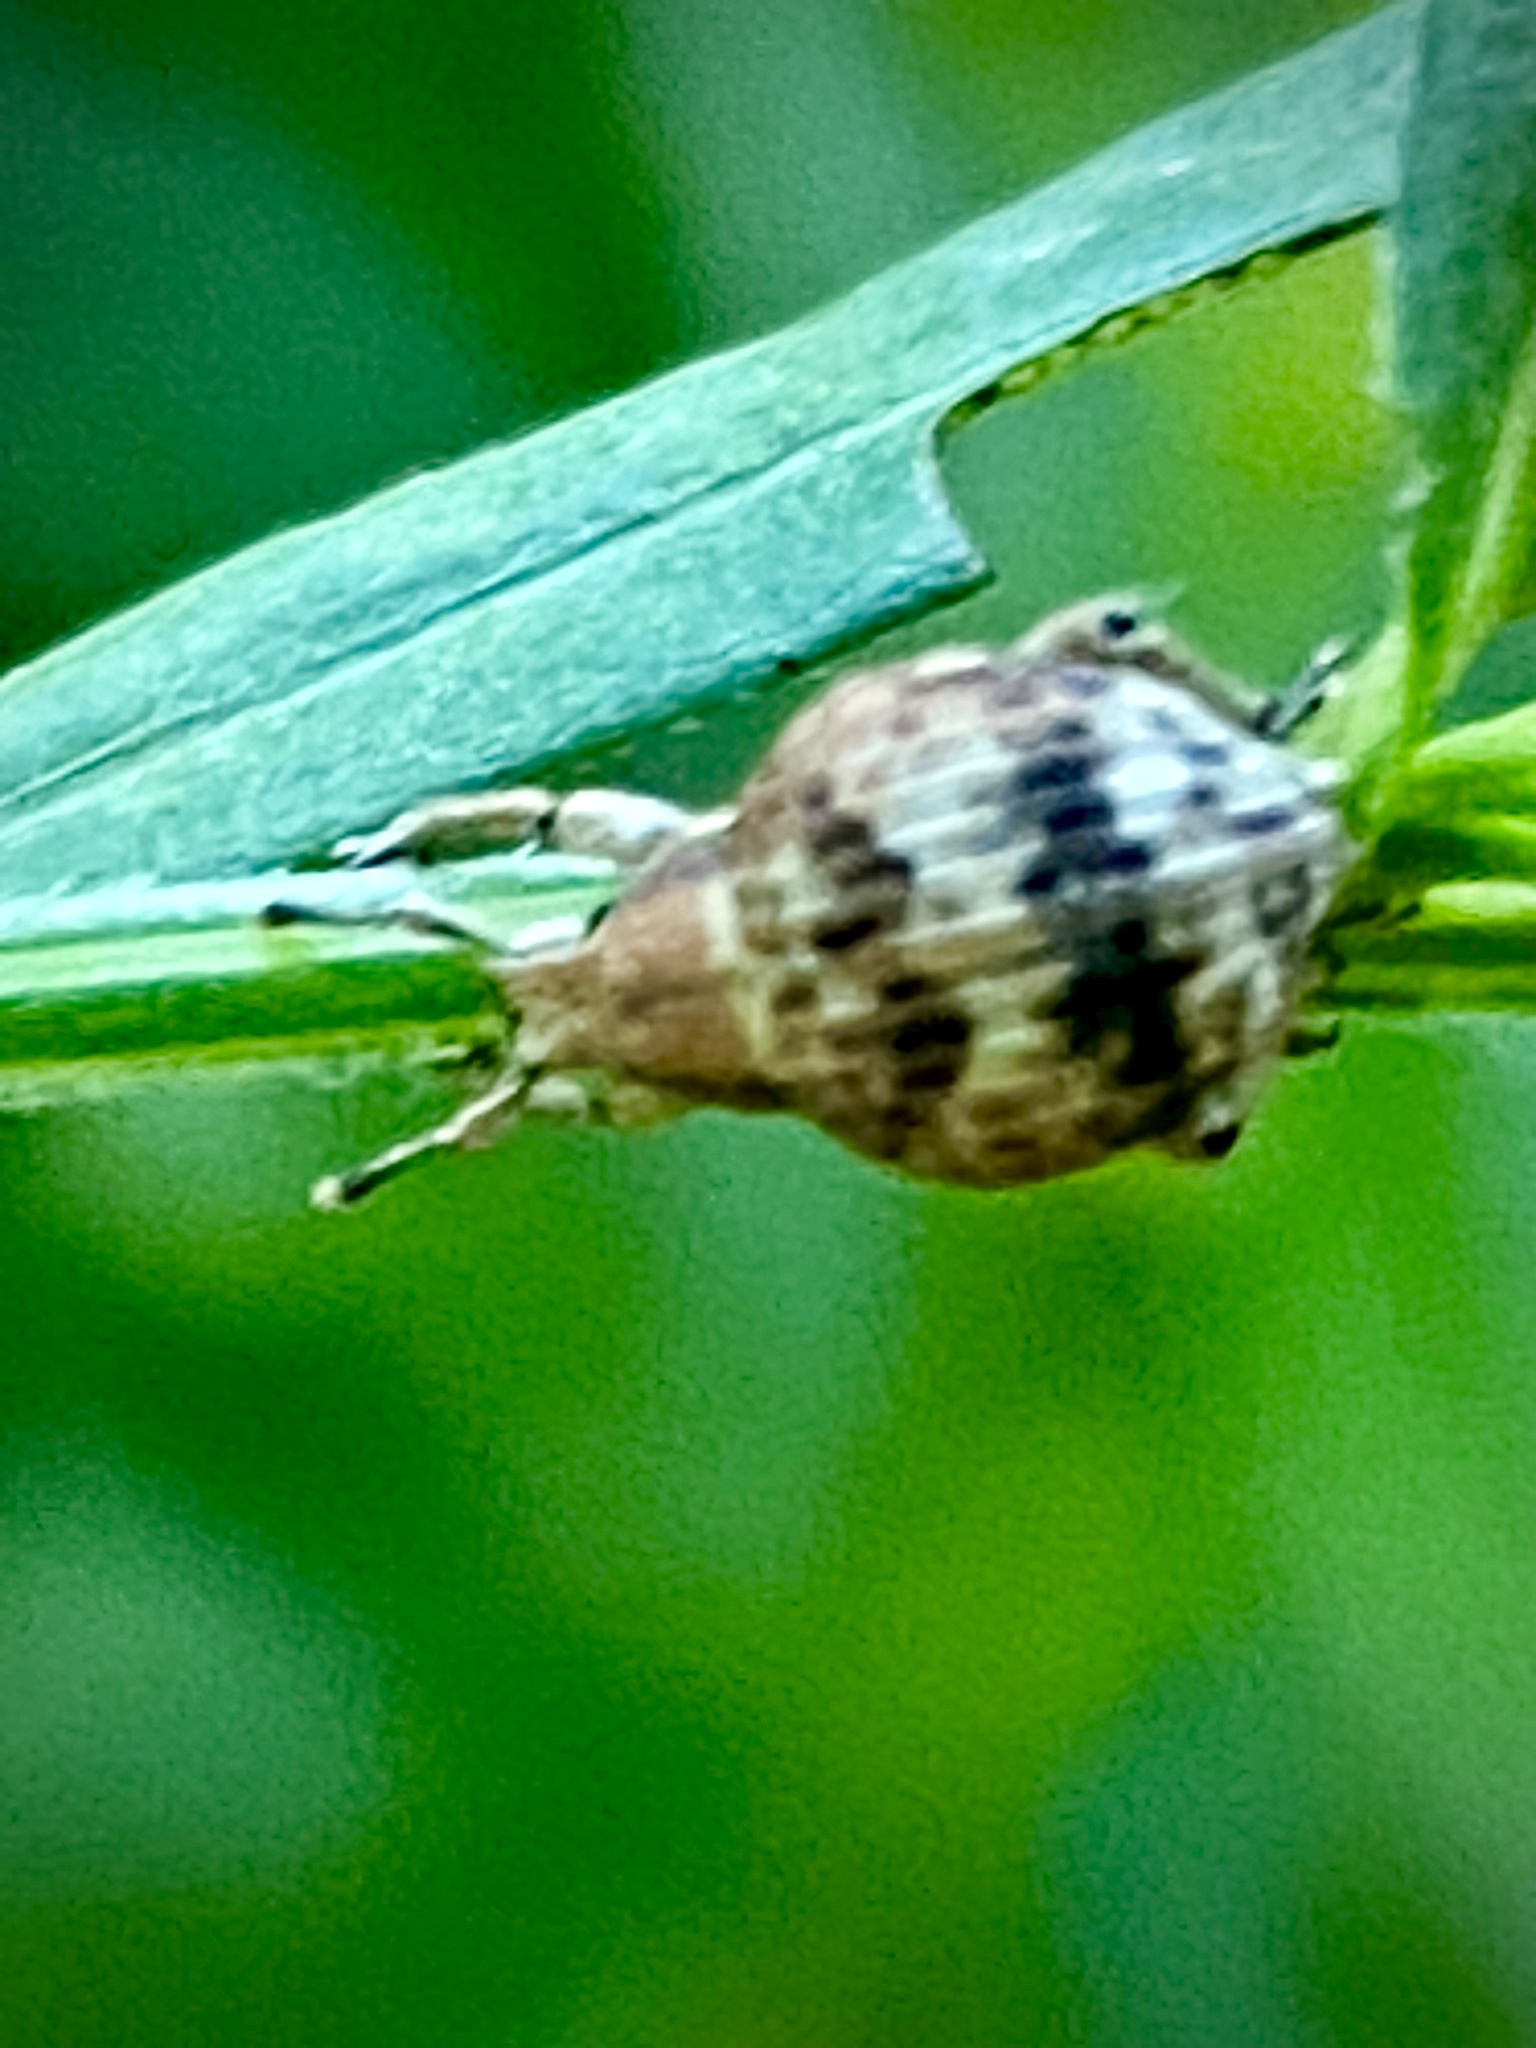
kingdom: Animalia
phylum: Arthropoda
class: Insecta
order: Coleoptera
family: Curculionidae
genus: Pseudocneorhinus
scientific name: Pseudocneorhinus bifasciatus
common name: Two-banded japanese weevil
